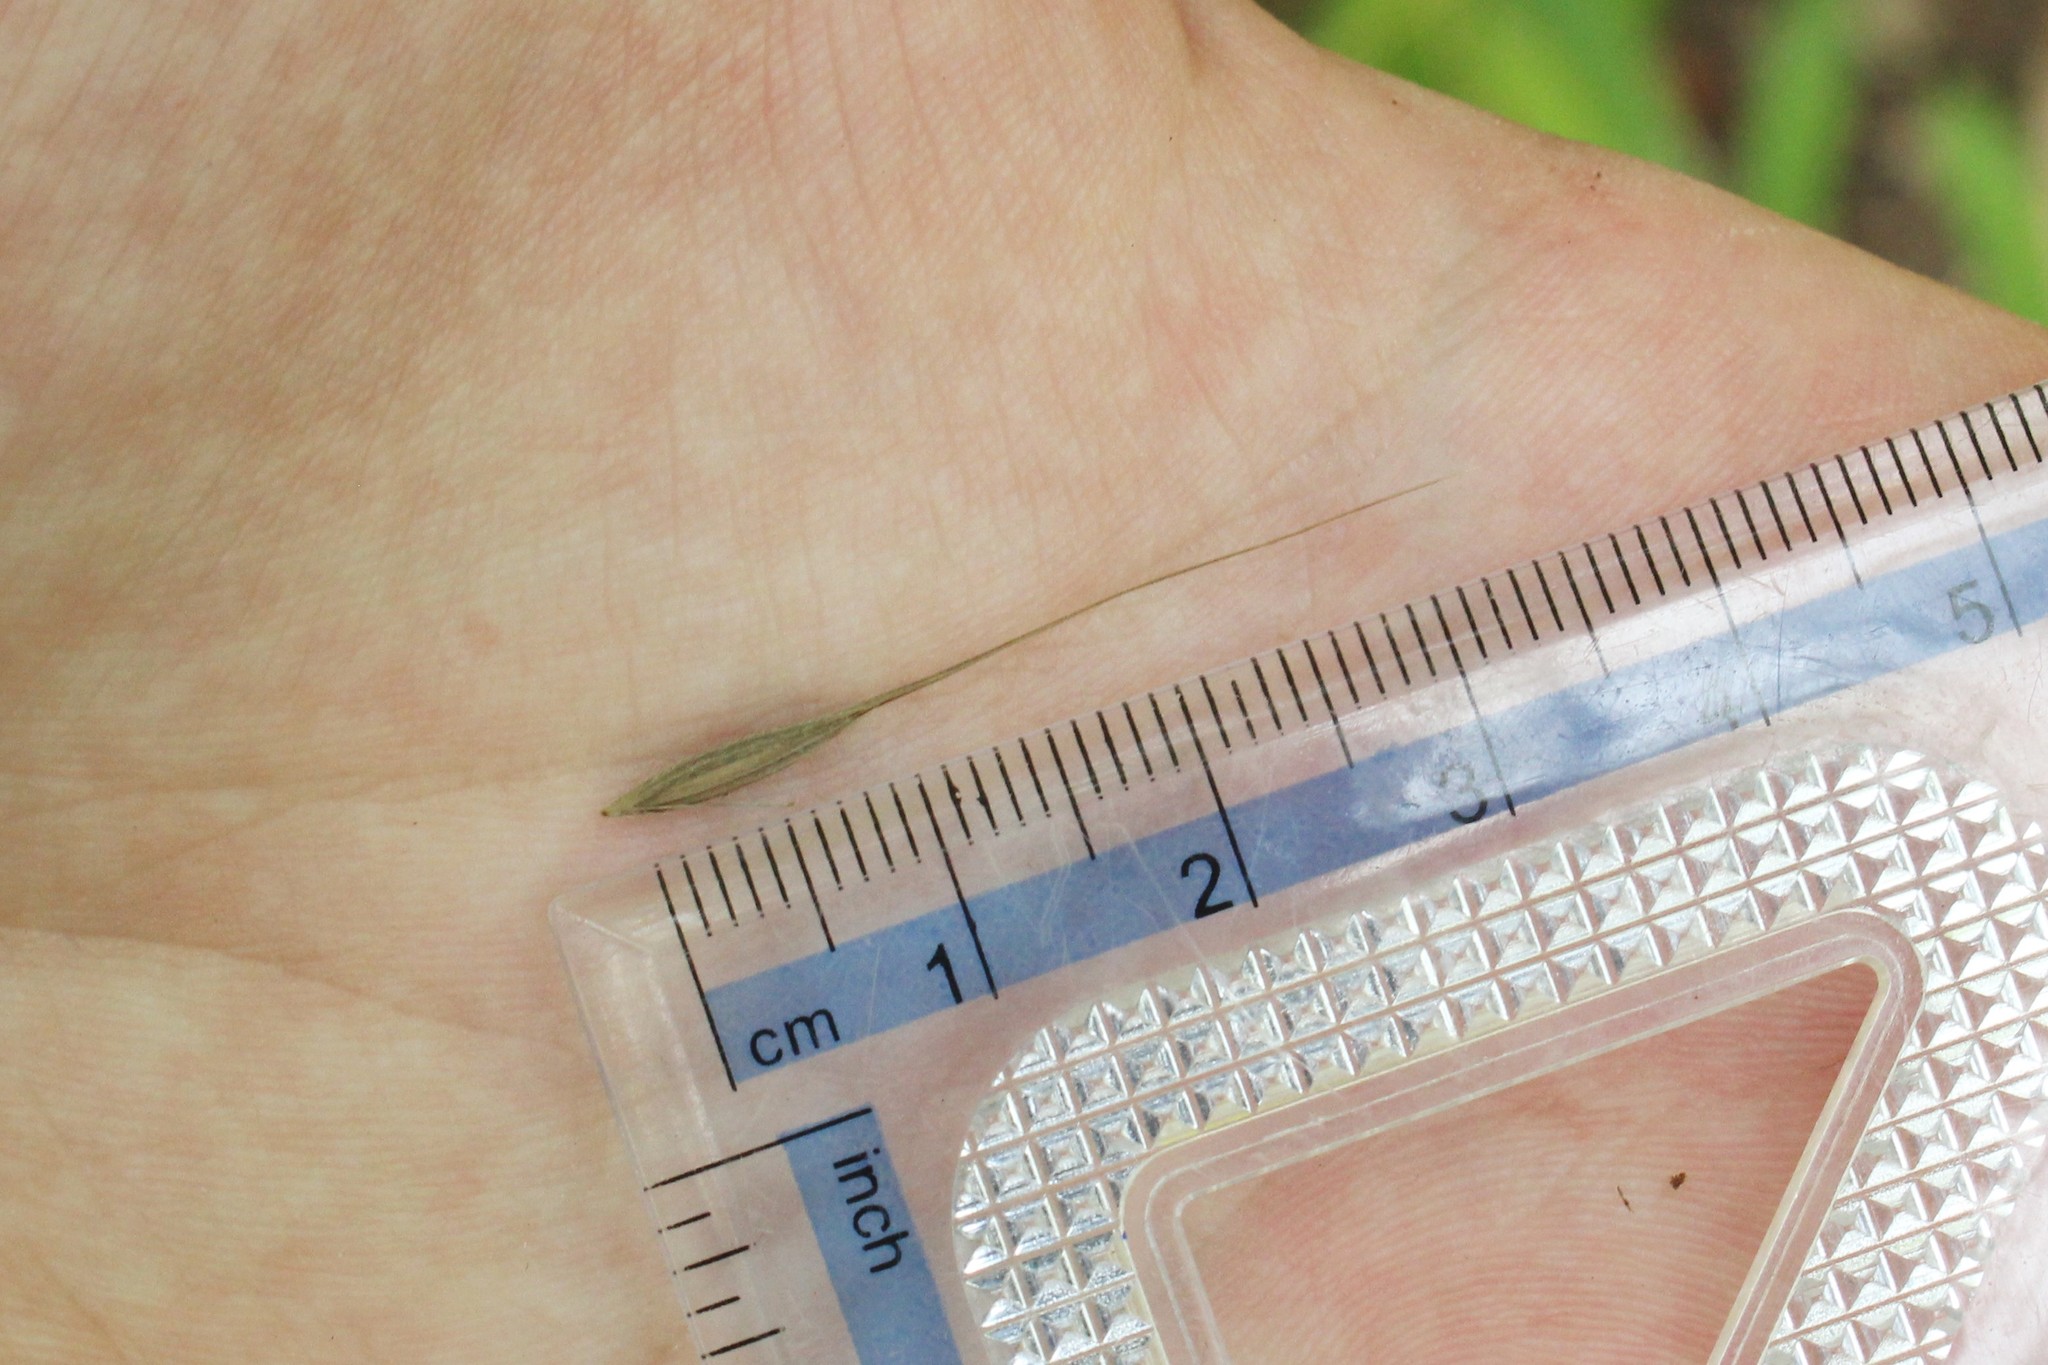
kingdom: Plantae
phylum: Tracheophyta
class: Liliopsida
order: Poales
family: Poaceae
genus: Brachyelytrum
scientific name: Brachyelytrum erectum
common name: Bearded shorthusk
